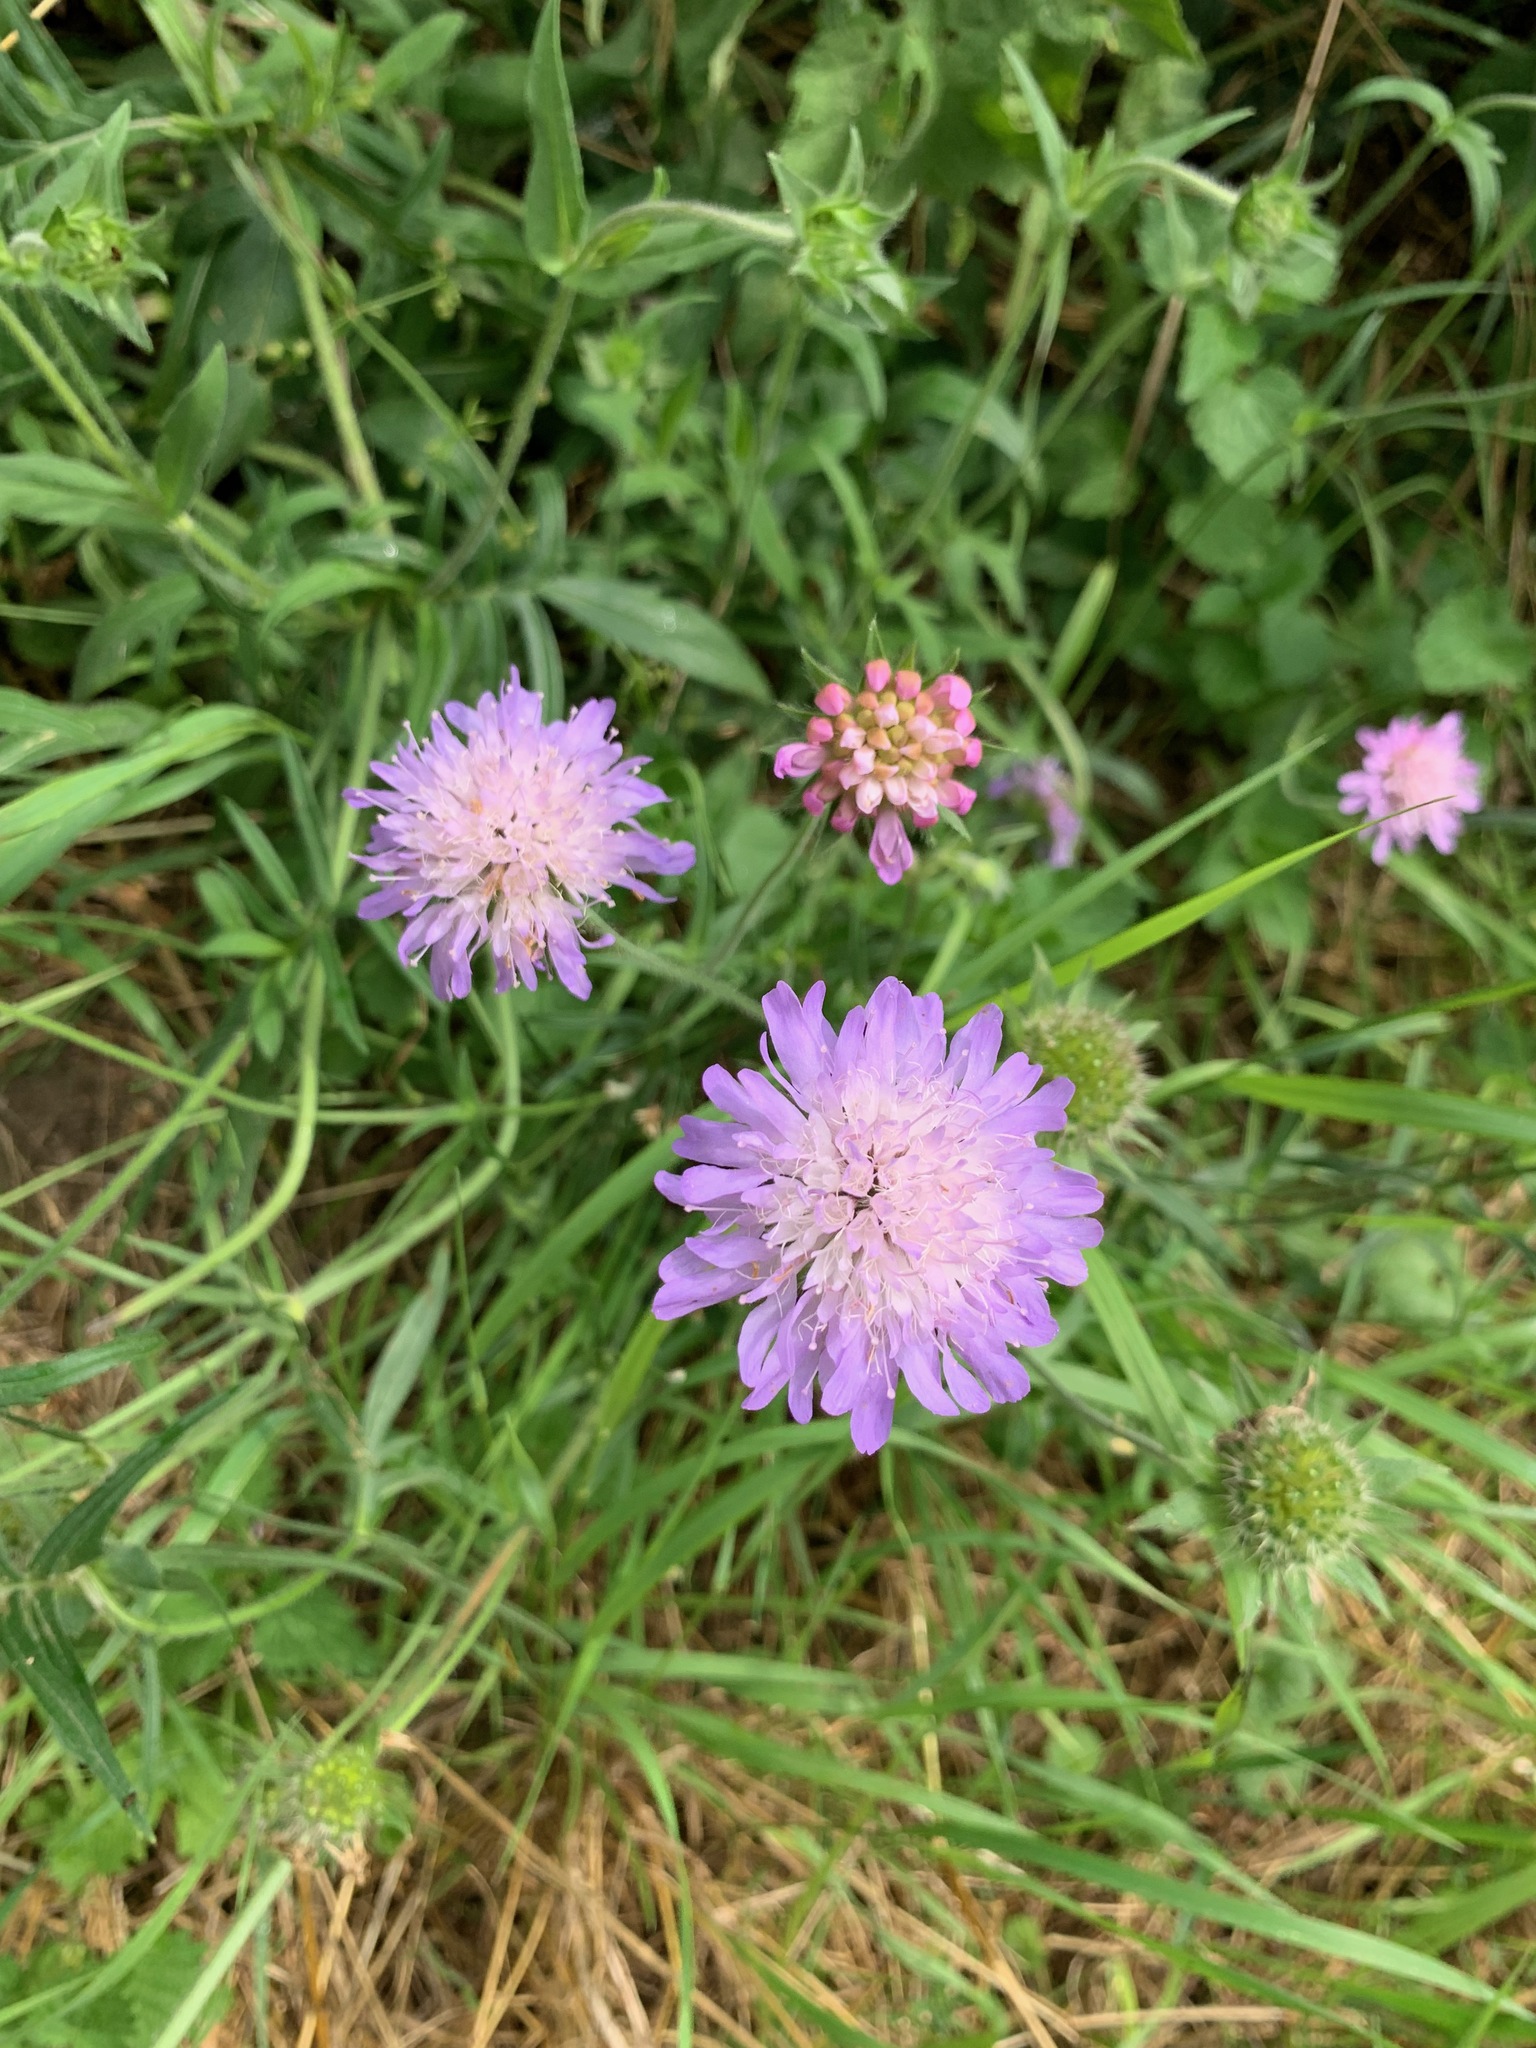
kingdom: Plantae
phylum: Tracheophyta
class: Magnoliopsida
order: Dipsacales
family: Caprifoliaceae
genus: Knautia
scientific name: Knautia arvensis
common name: Field scabiosa
